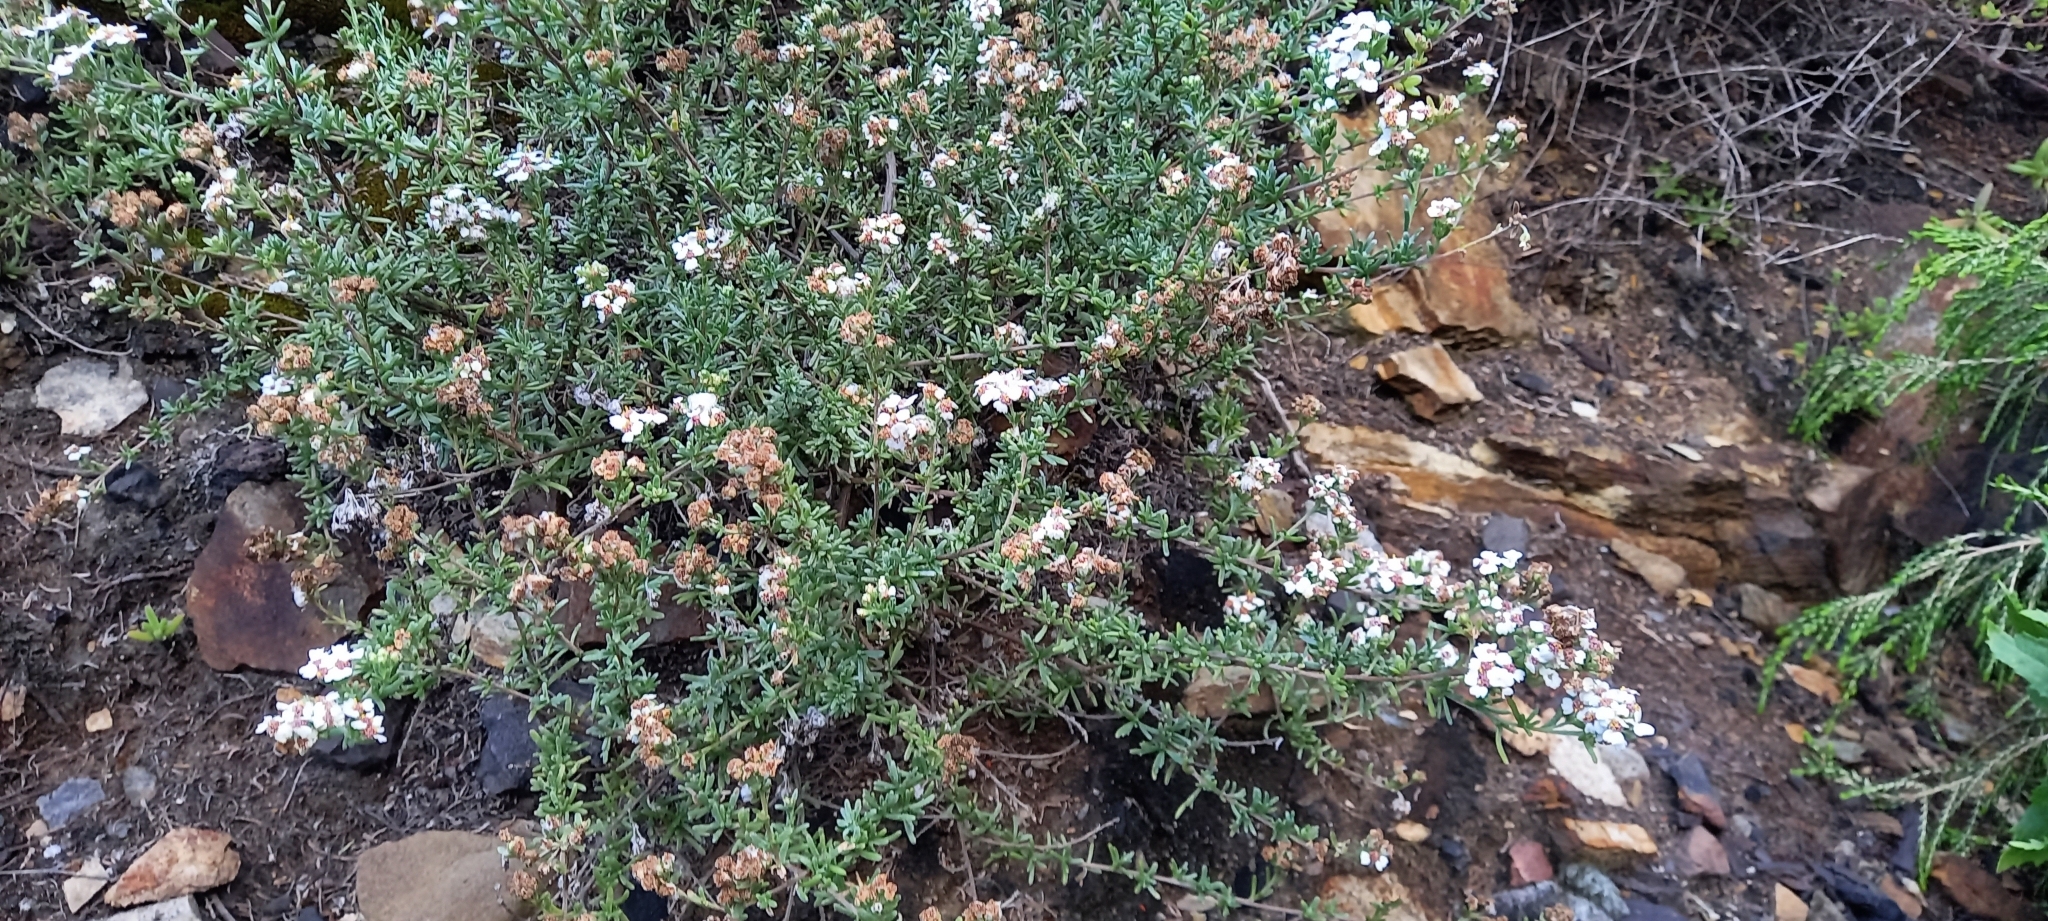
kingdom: Plantae
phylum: Tracheophyta
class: Magnoliopsida
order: Asterales
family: Asteraceae
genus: Eriocephalus
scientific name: Eriocephalus africanus
